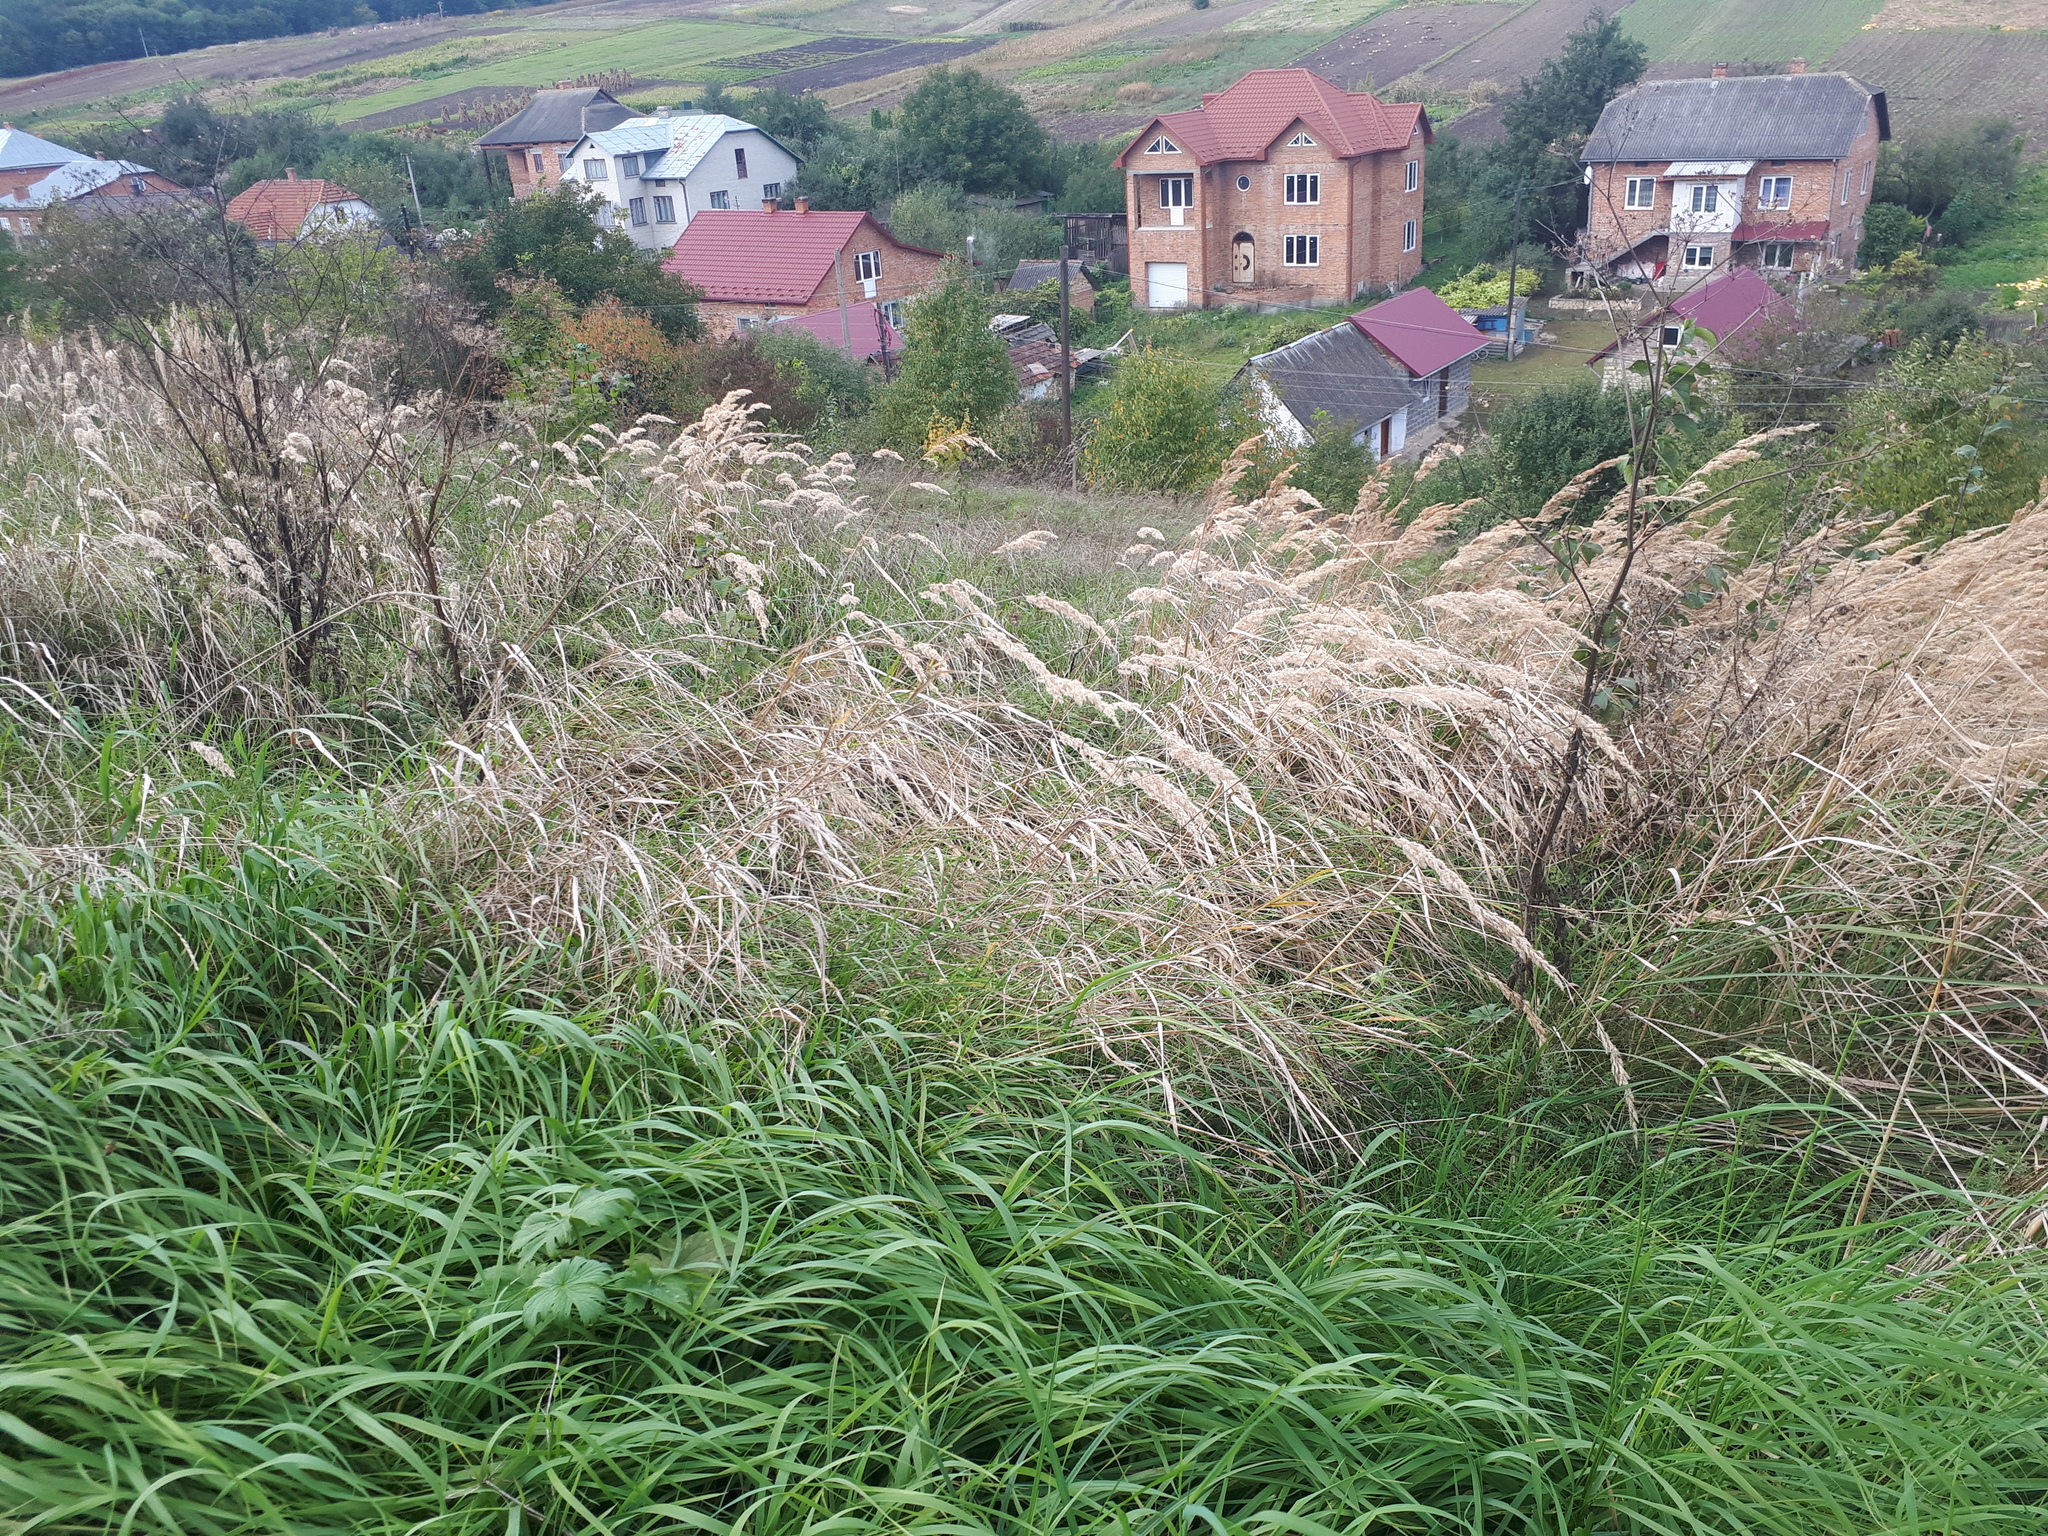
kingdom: Plantae
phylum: Tracheophyta
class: Liliopsida
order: Poales
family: Poaceae
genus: Calamagrostis
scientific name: Calamagrostis epigejos
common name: Wood small-reed
